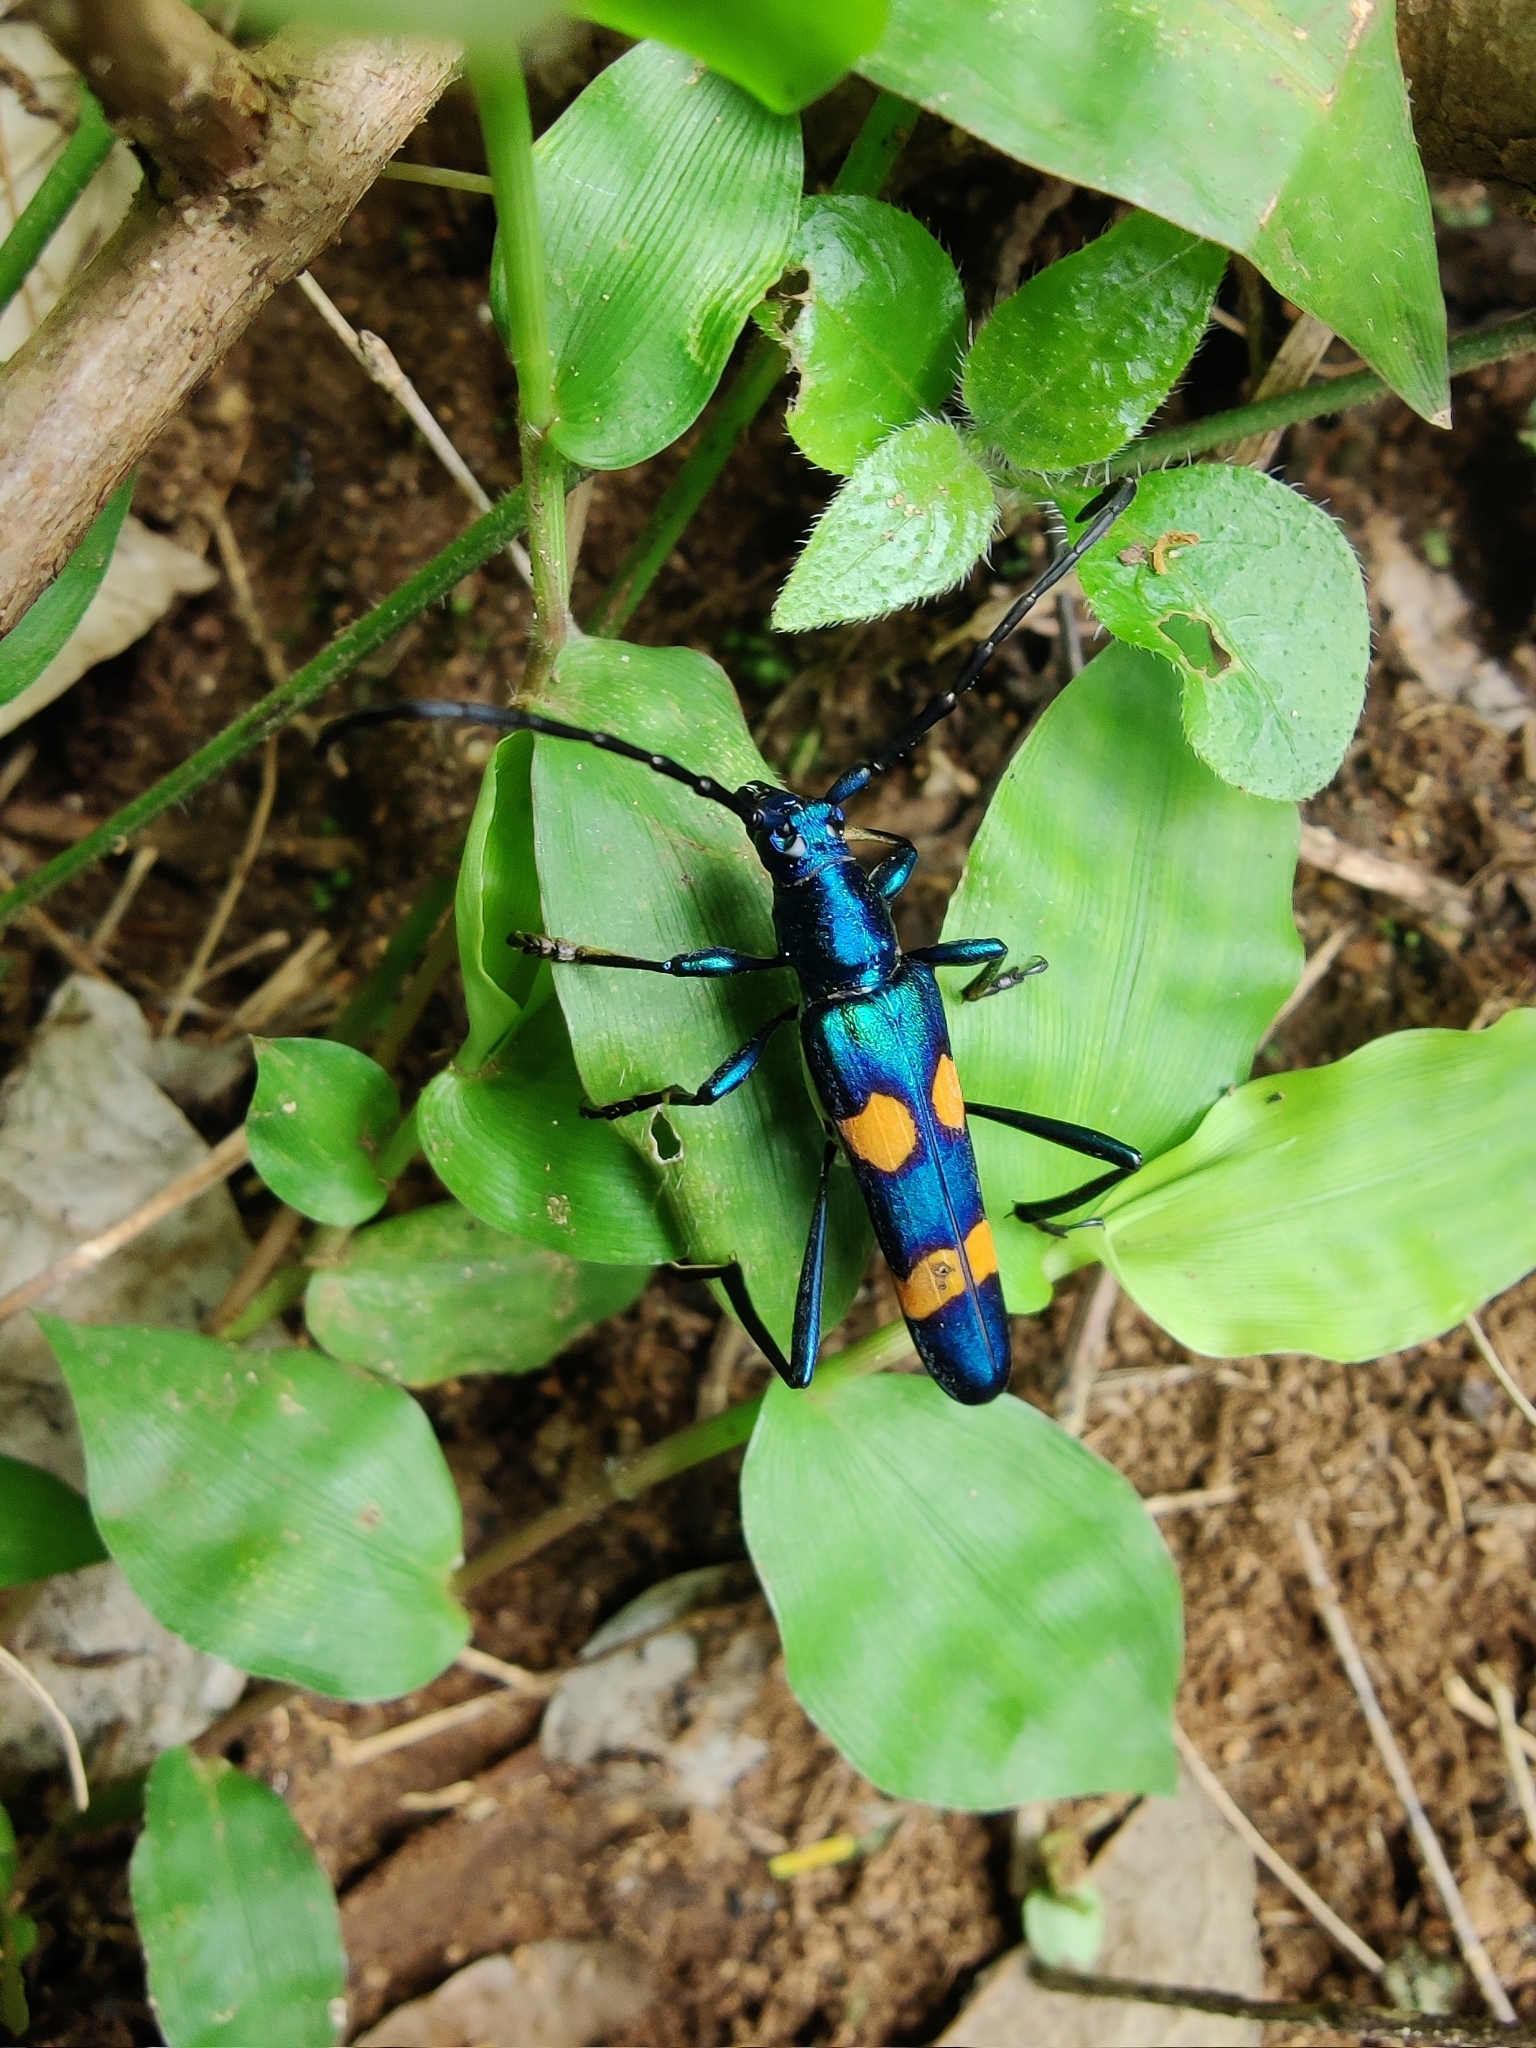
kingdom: Animalia
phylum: Arthropoda
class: Insecta
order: Coleoptera
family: Cerambycidae
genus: Polyzonus
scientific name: Polyzonus tetraspilotus
